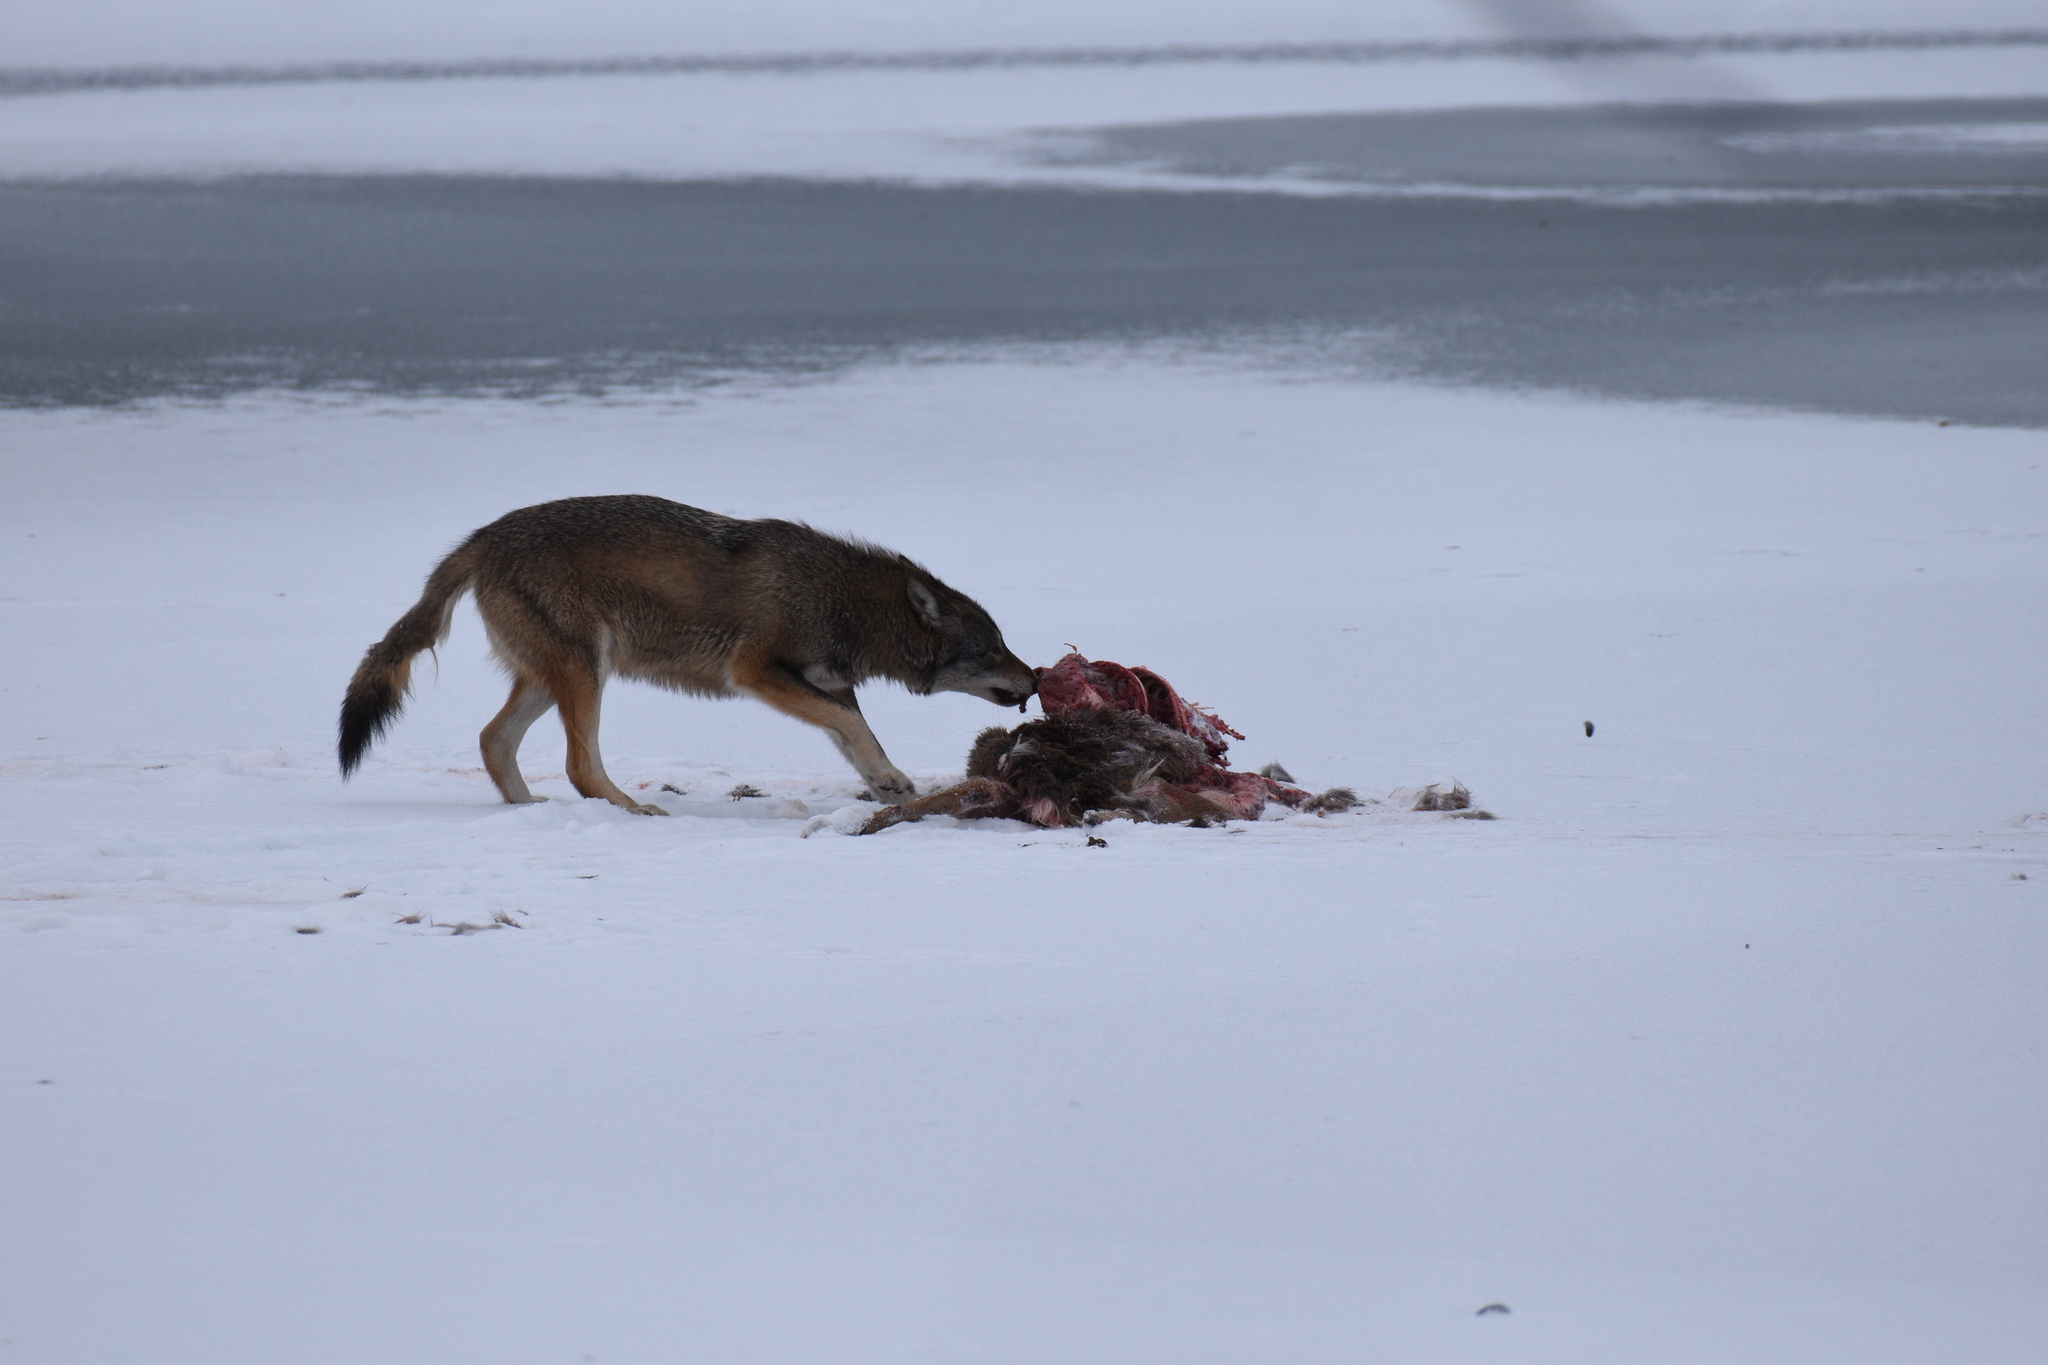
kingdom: Animalia
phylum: Chordata
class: Mammalia
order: Carnivora
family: Canidae
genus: Canis
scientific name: Canis latrans
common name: Coyote
